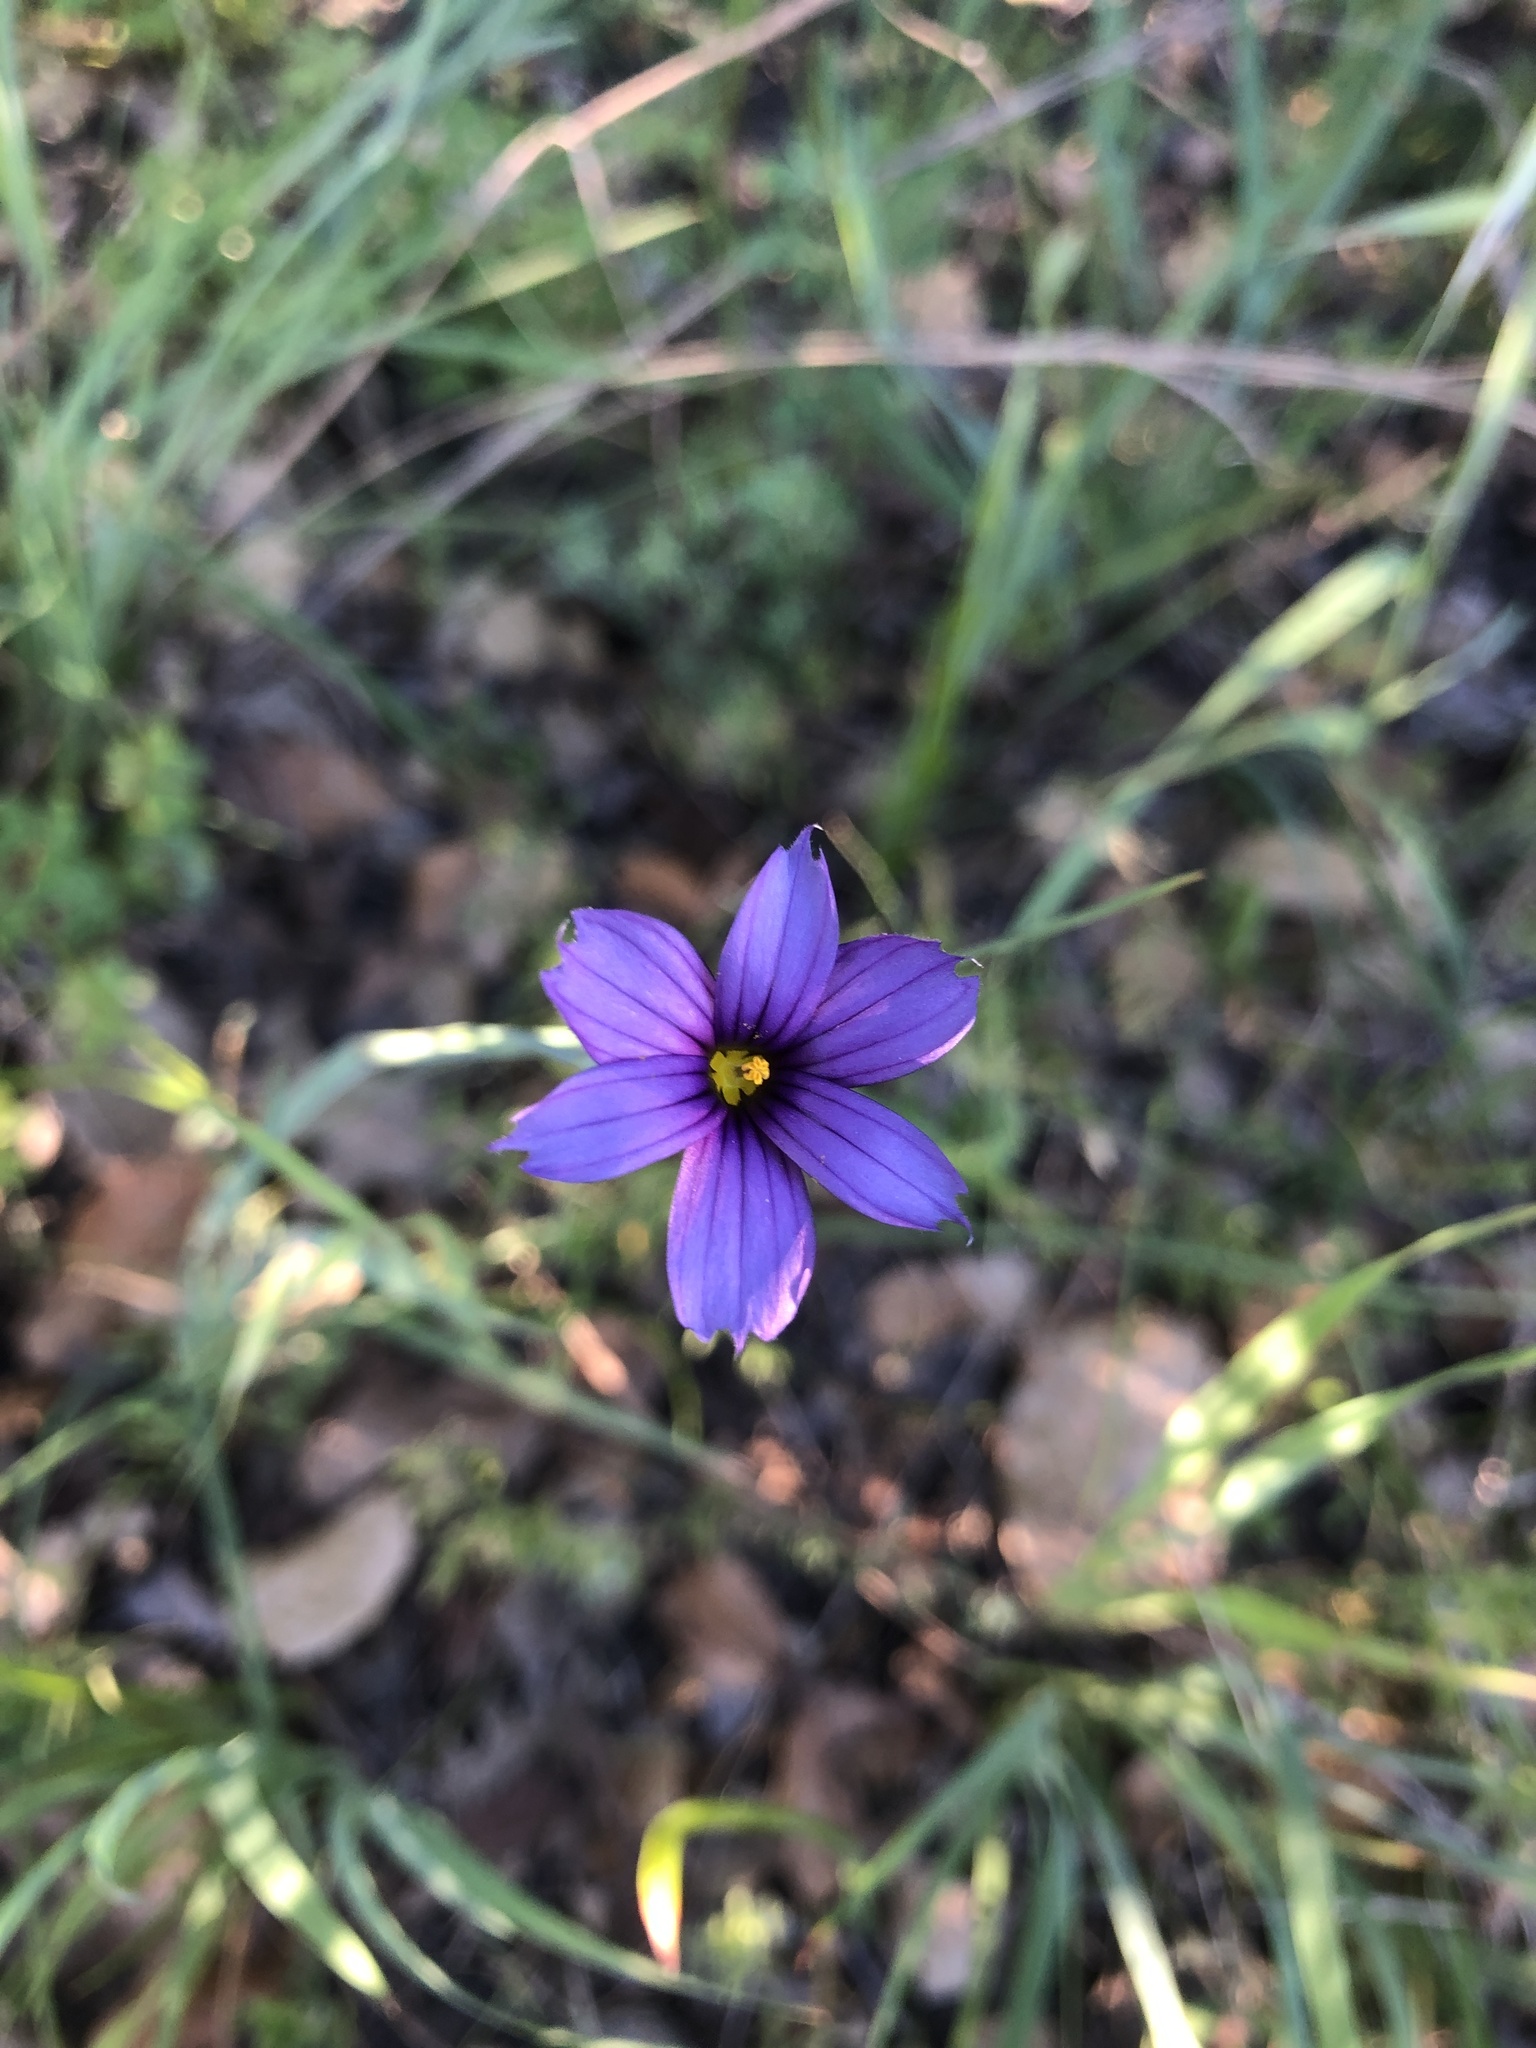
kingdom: Plantae
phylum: Tracheophyta
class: Liliopsida
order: Asparagales
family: Iridaceae
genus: Sisyrinchium
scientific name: Sisyrinchium bellum
